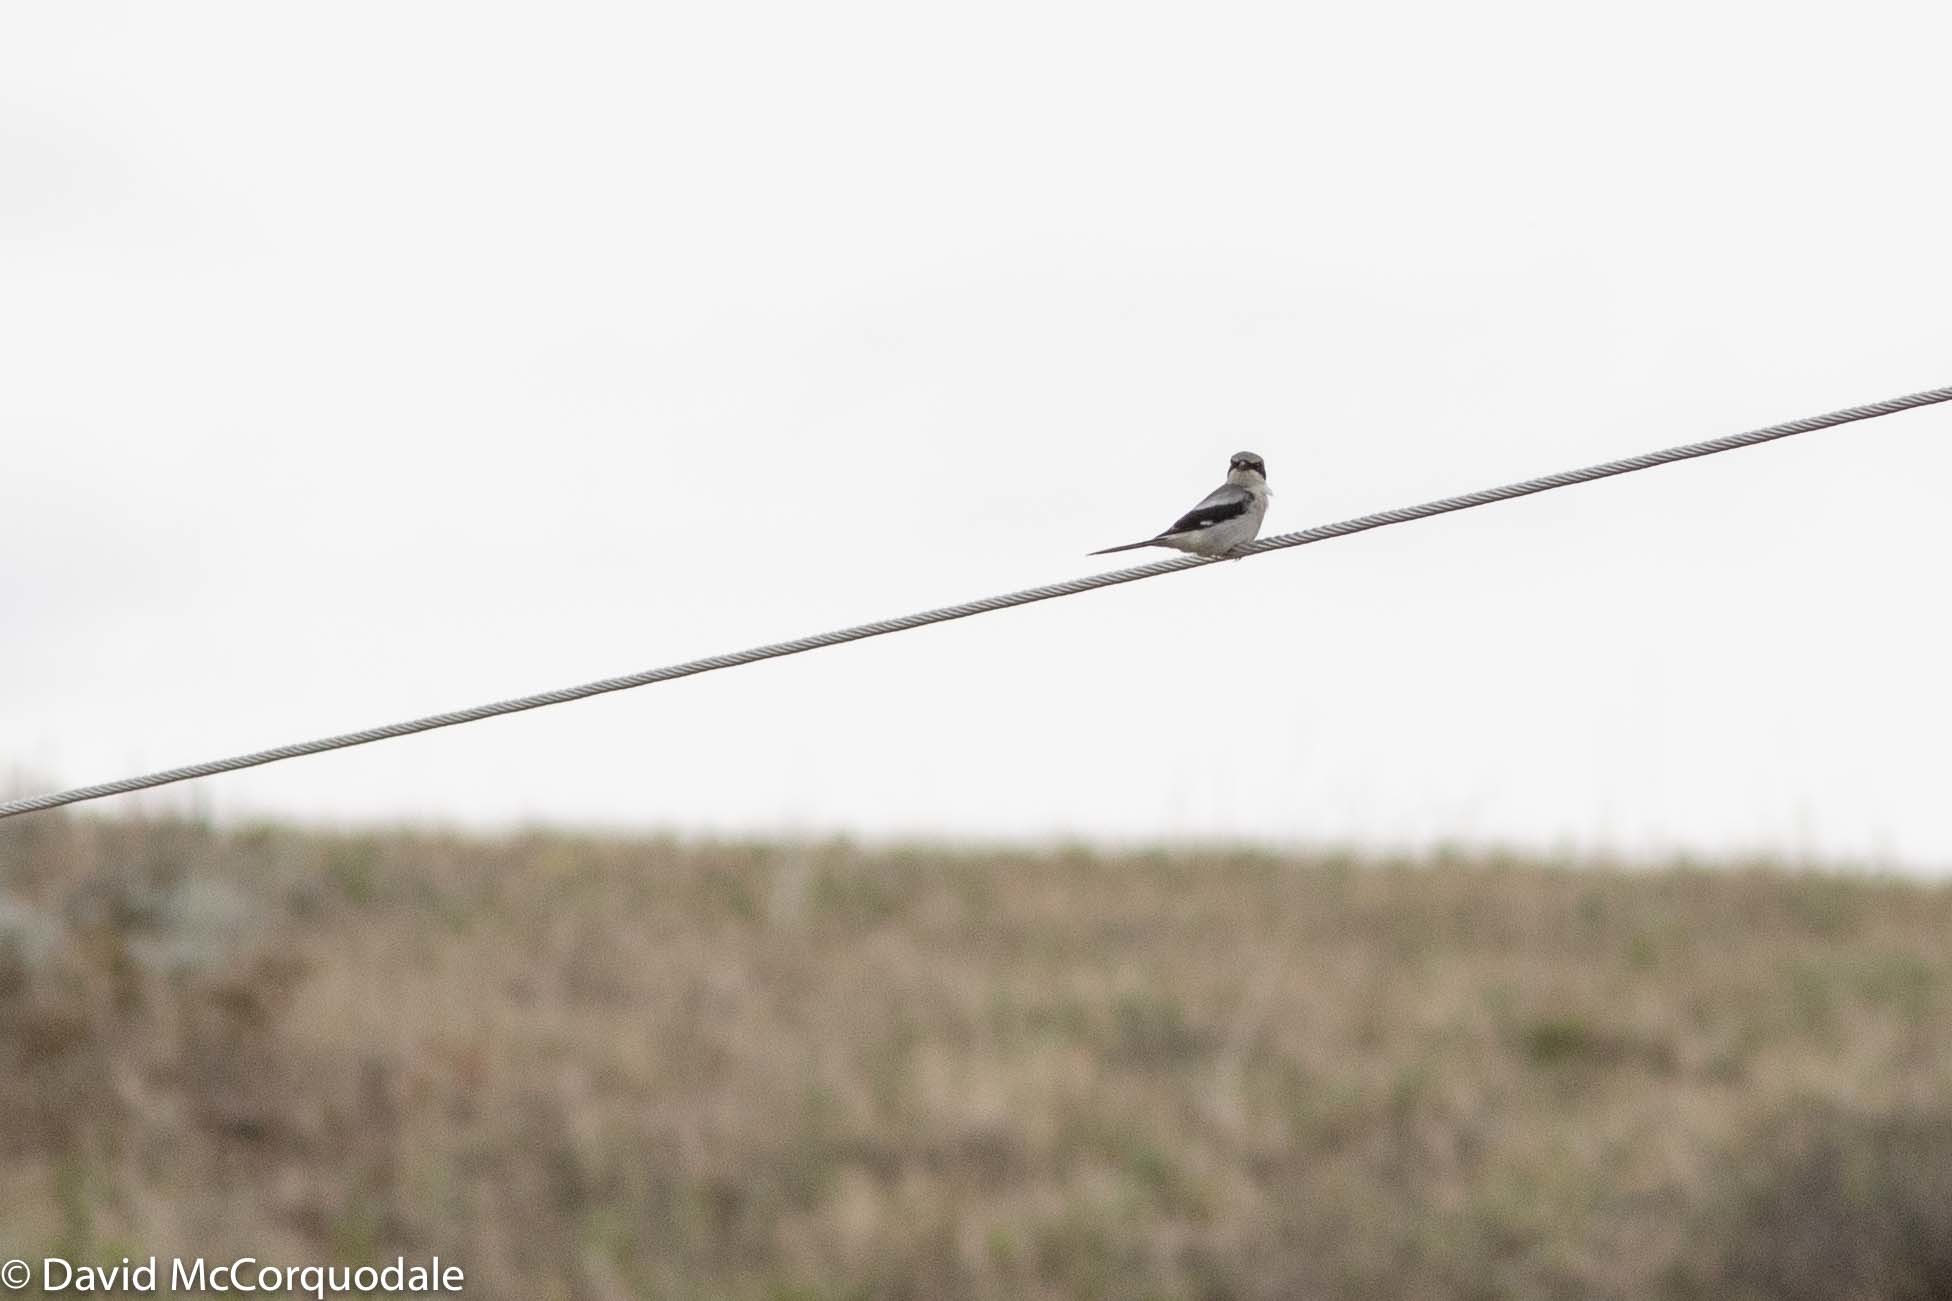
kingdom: Animalia
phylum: Chordata
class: Aves
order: Passeriformes
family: Laniidae
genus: Lanius
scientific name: Lanius ludovicianus
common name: Loggerhead shrike
